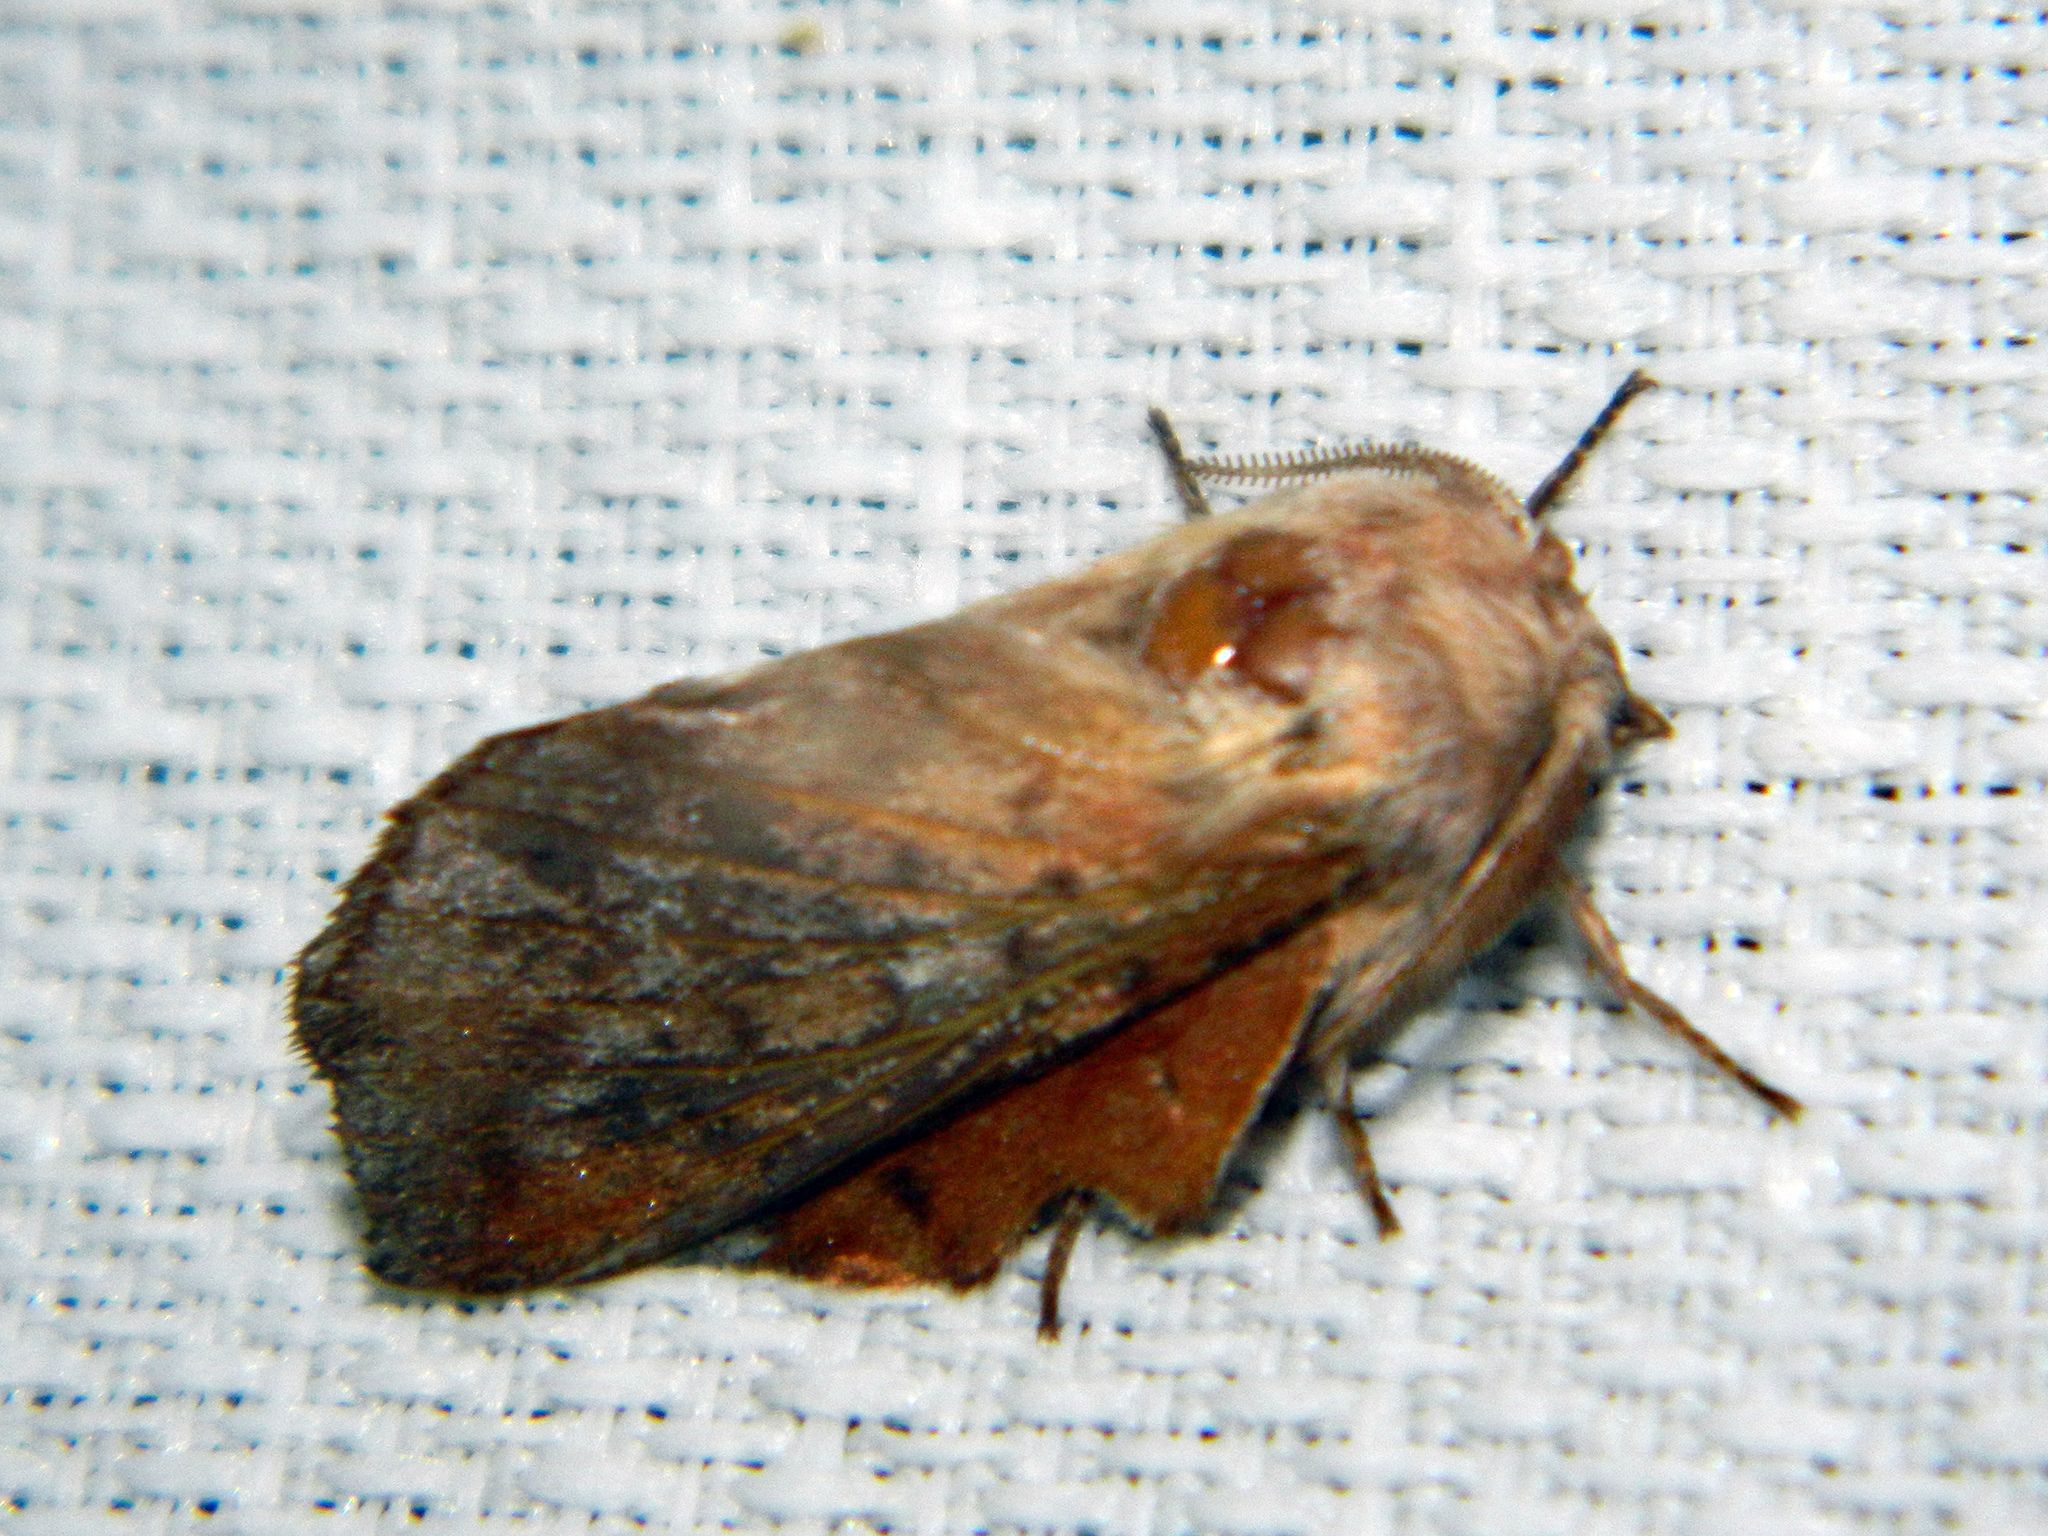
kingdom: Animalia
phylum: Arthropoda
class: Insecta
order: Lepidoptera
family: Lasiocampidae
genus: Phyllodesma
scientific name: Phyllodesma americana
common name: American lappet moth
